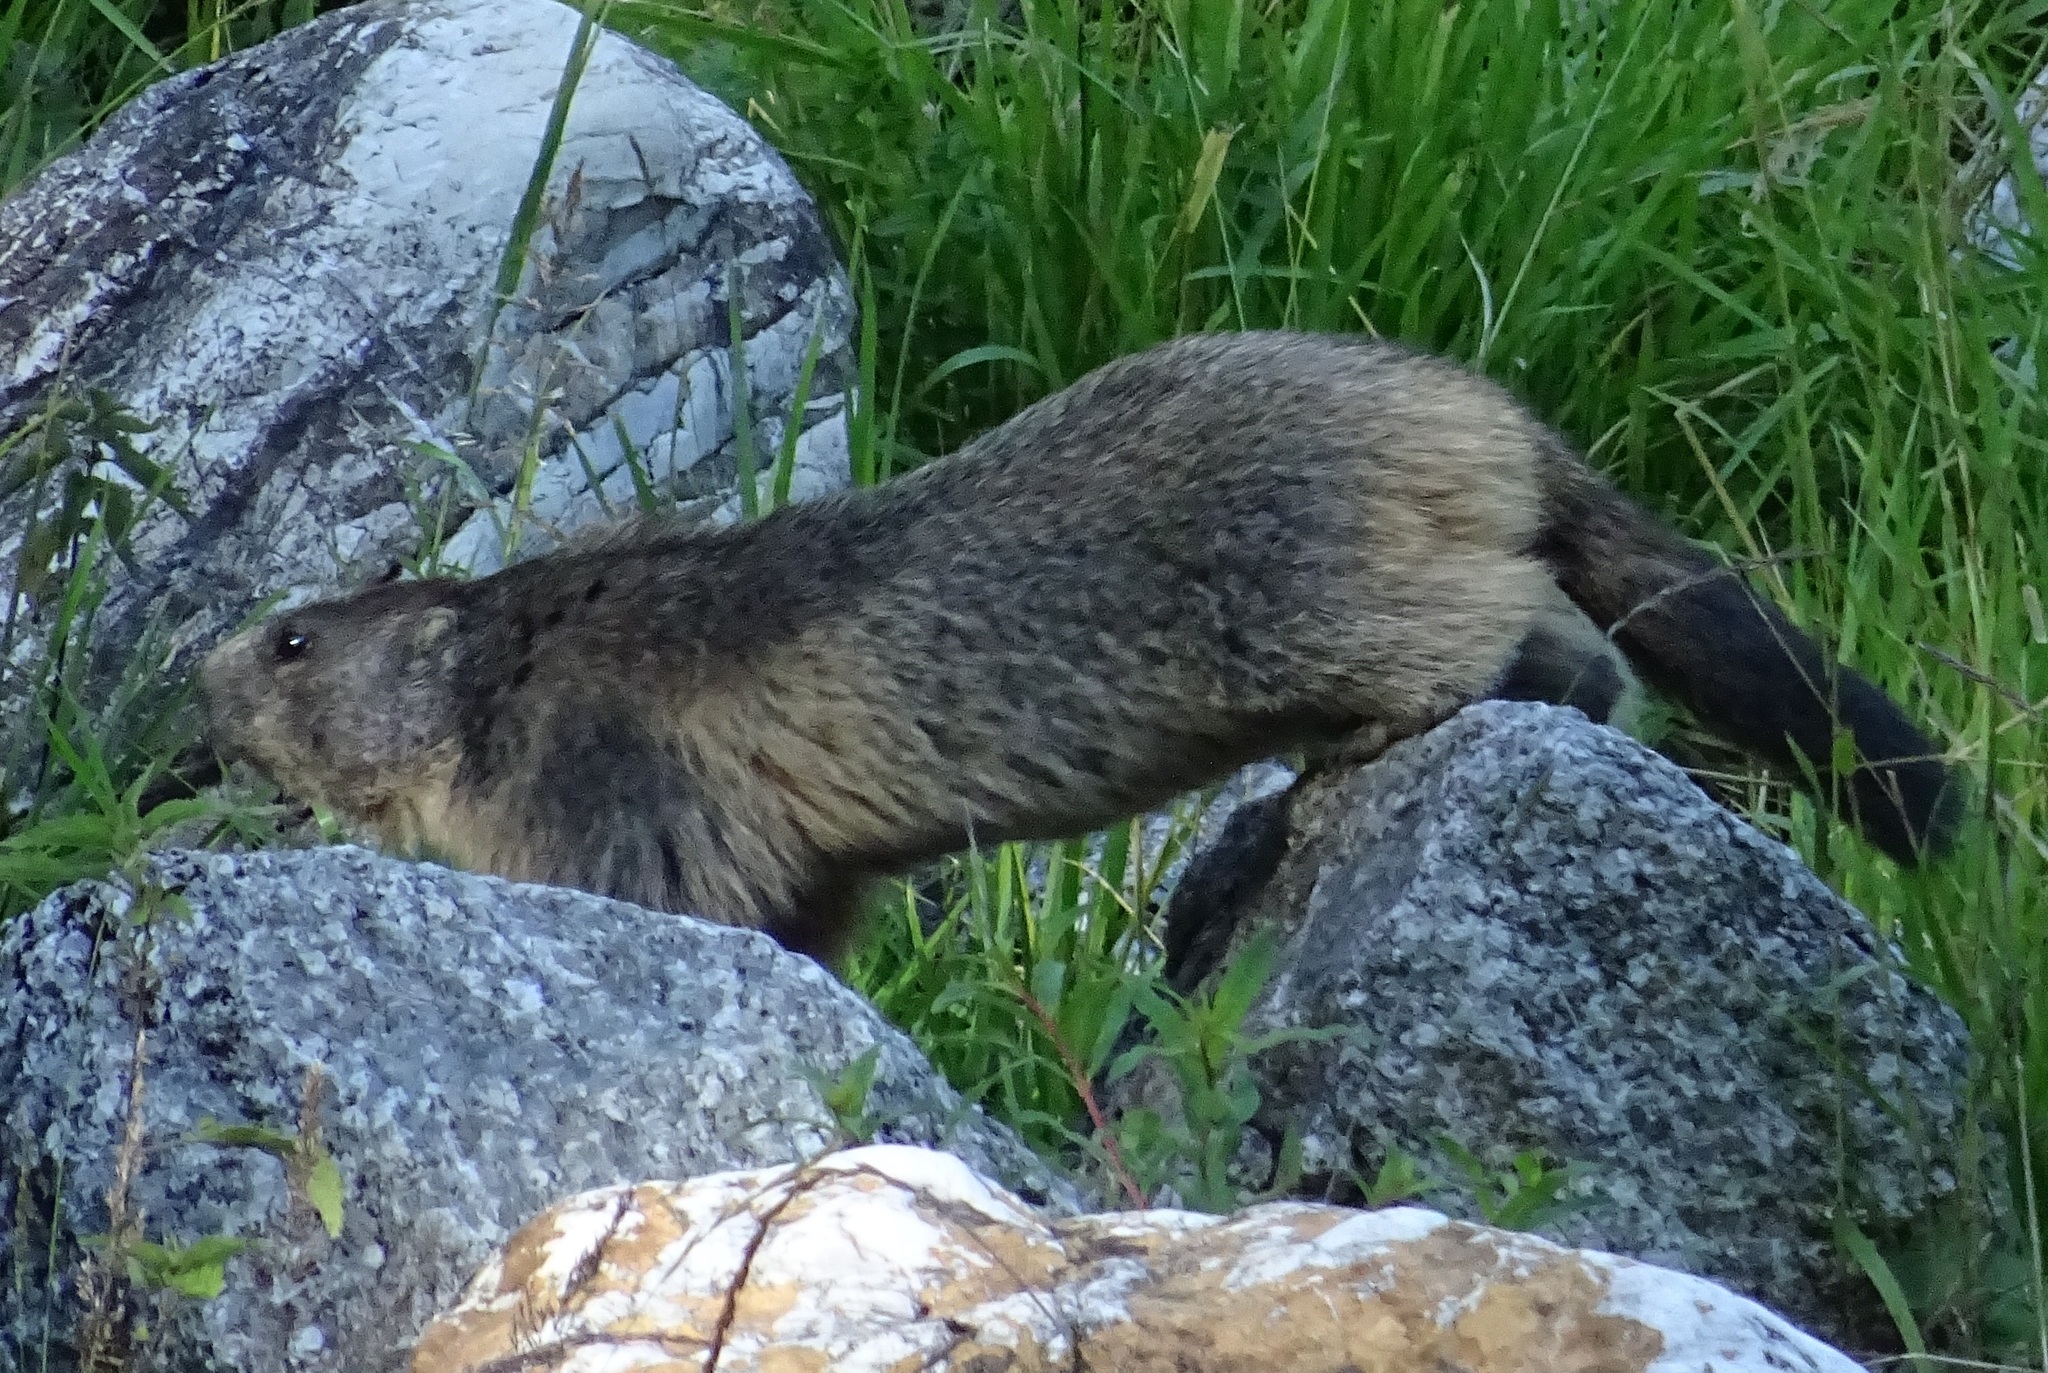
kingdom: Animalia
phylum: Chordata
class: Mammalia
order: Rodentia
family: Sciuridae
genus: Marmota
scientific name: Marmota marmota
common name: Alpine marmot
